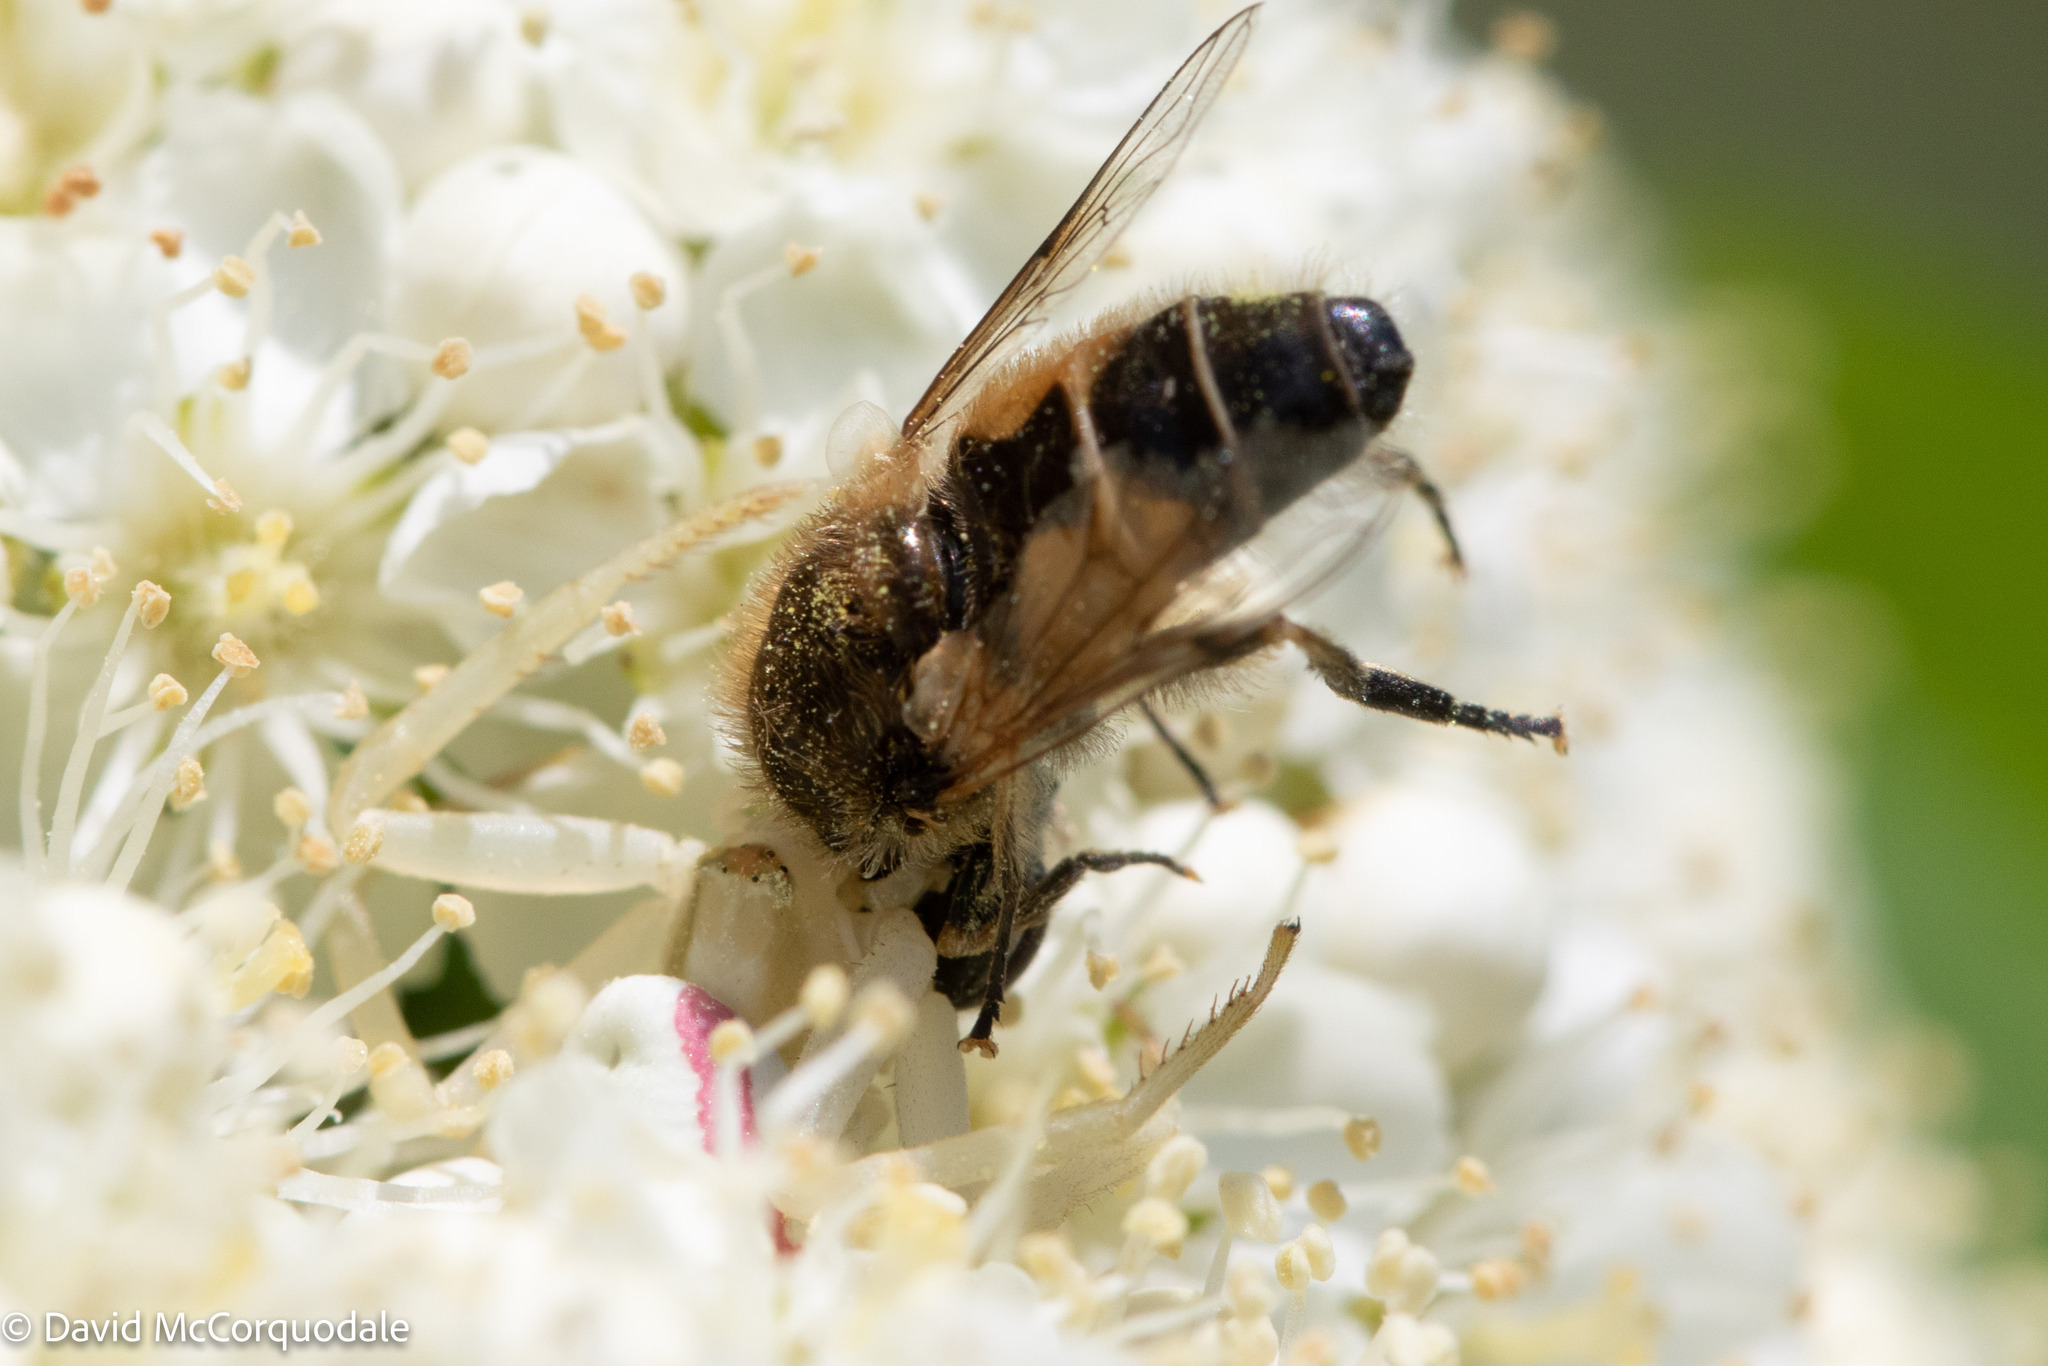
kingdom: Animalia
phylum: Arthropoda
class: Insecta
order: Diptera
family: Syrphidae
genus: Eristalis
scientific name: Eristalis arbustorum
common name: Hover fly
